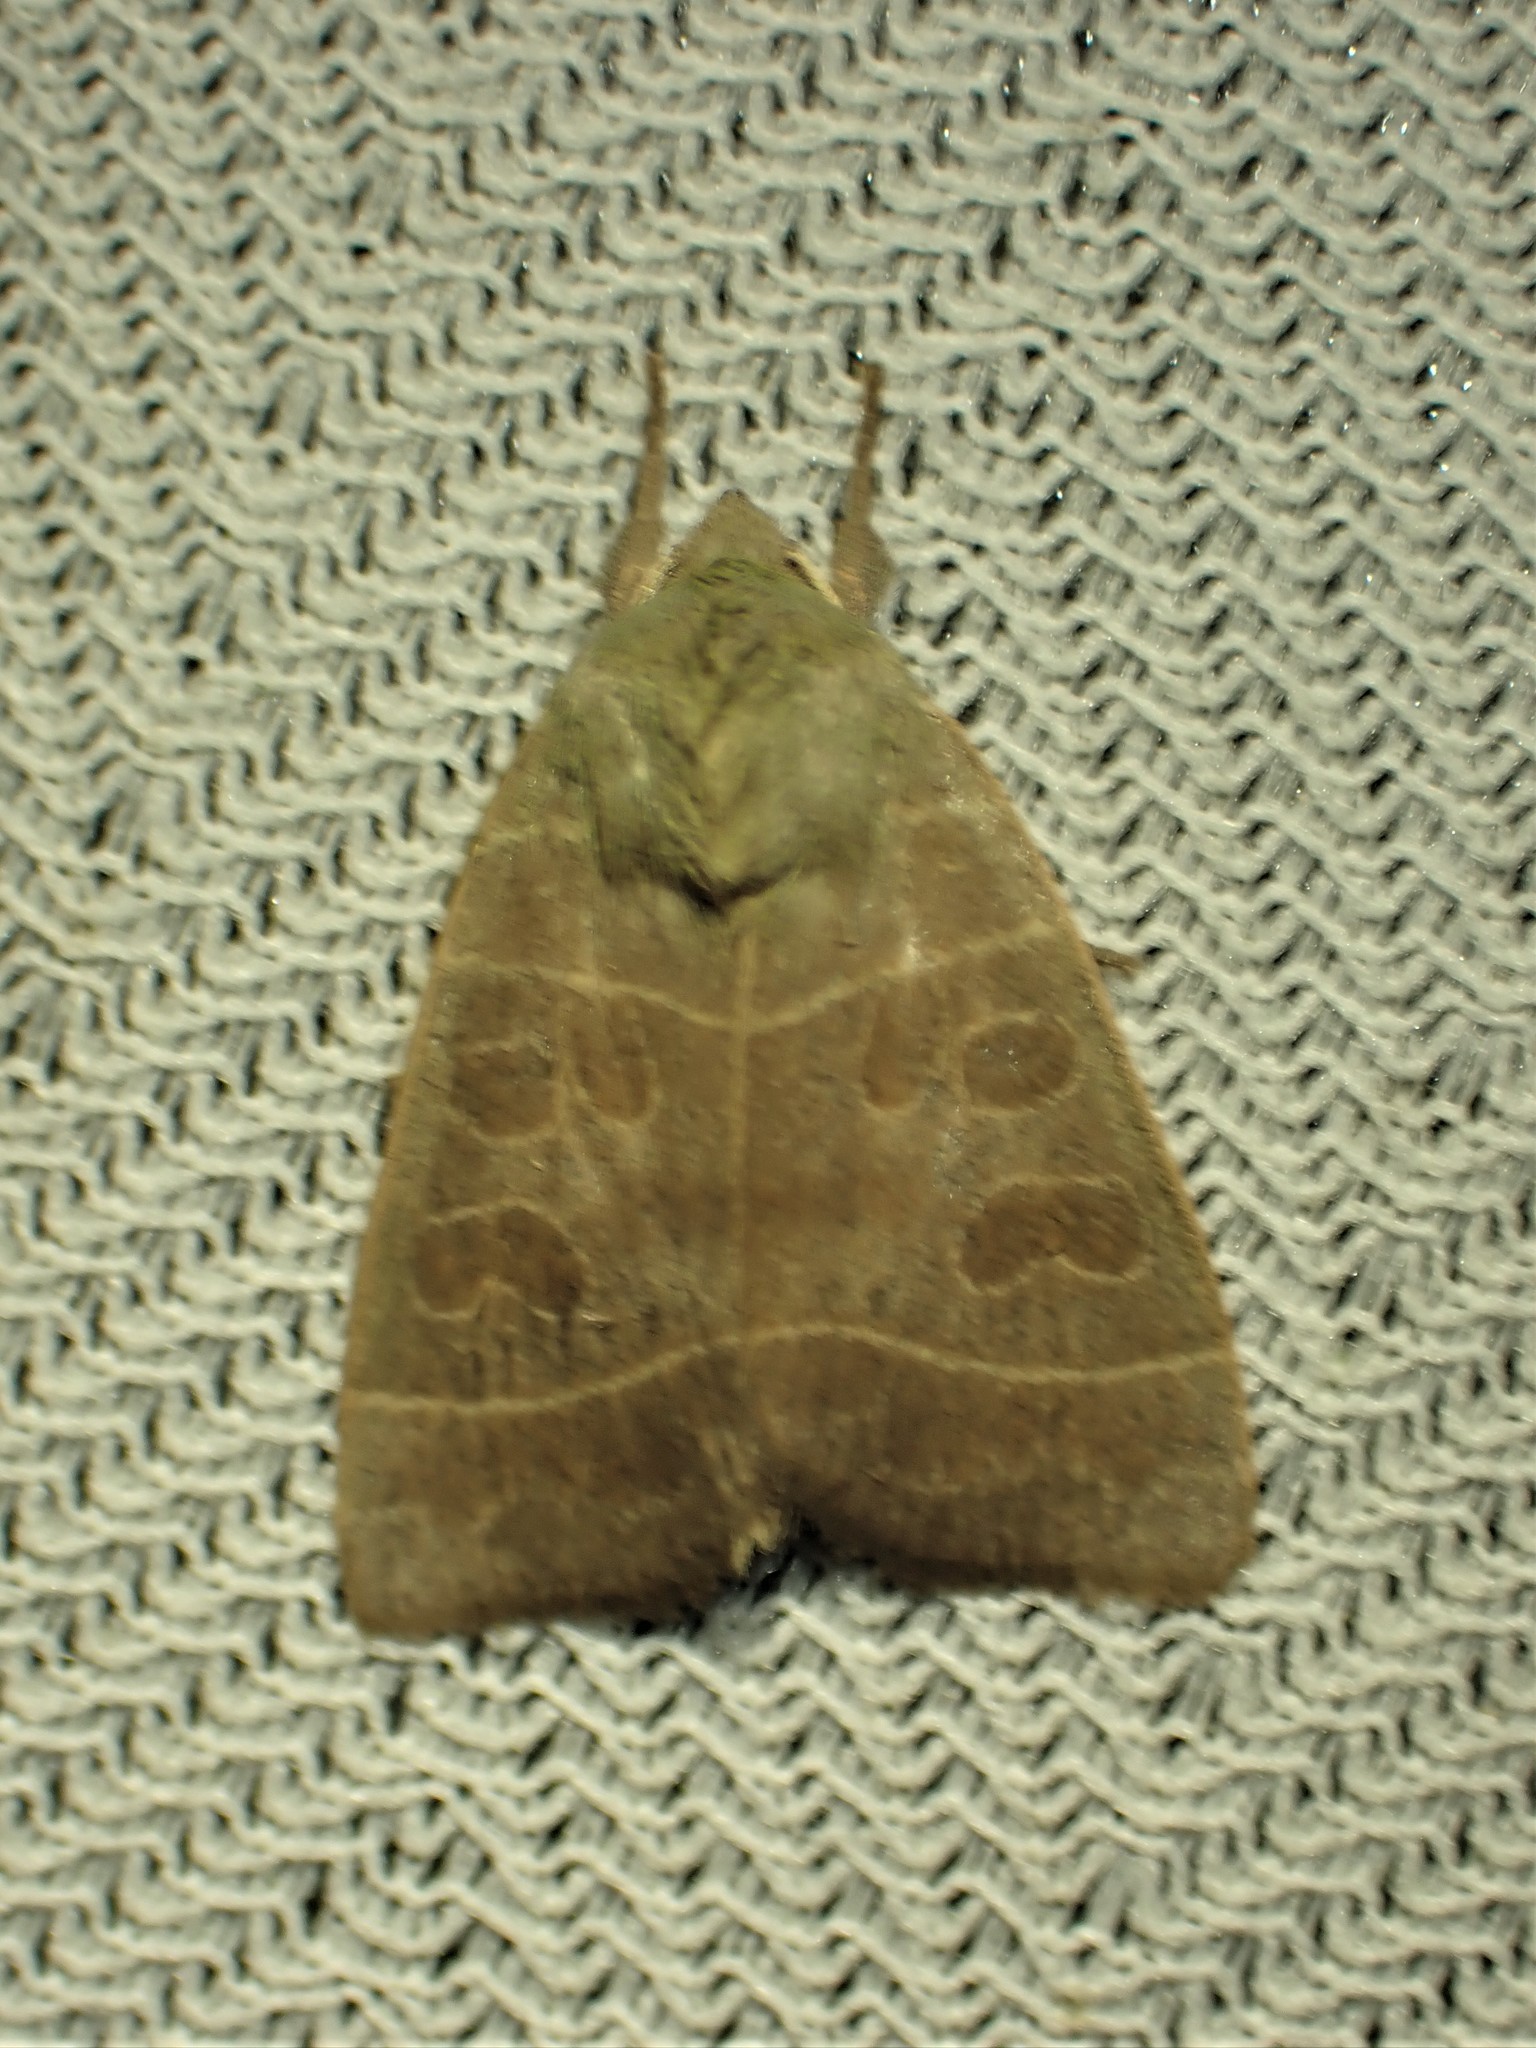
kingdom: Animalia
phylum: Arthropoda
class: Insecta
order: Lepidoptera
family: Noctuidae
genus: Ipimorpha
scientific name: Ipimorpha pleonectusa
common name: Even-lined sallow
